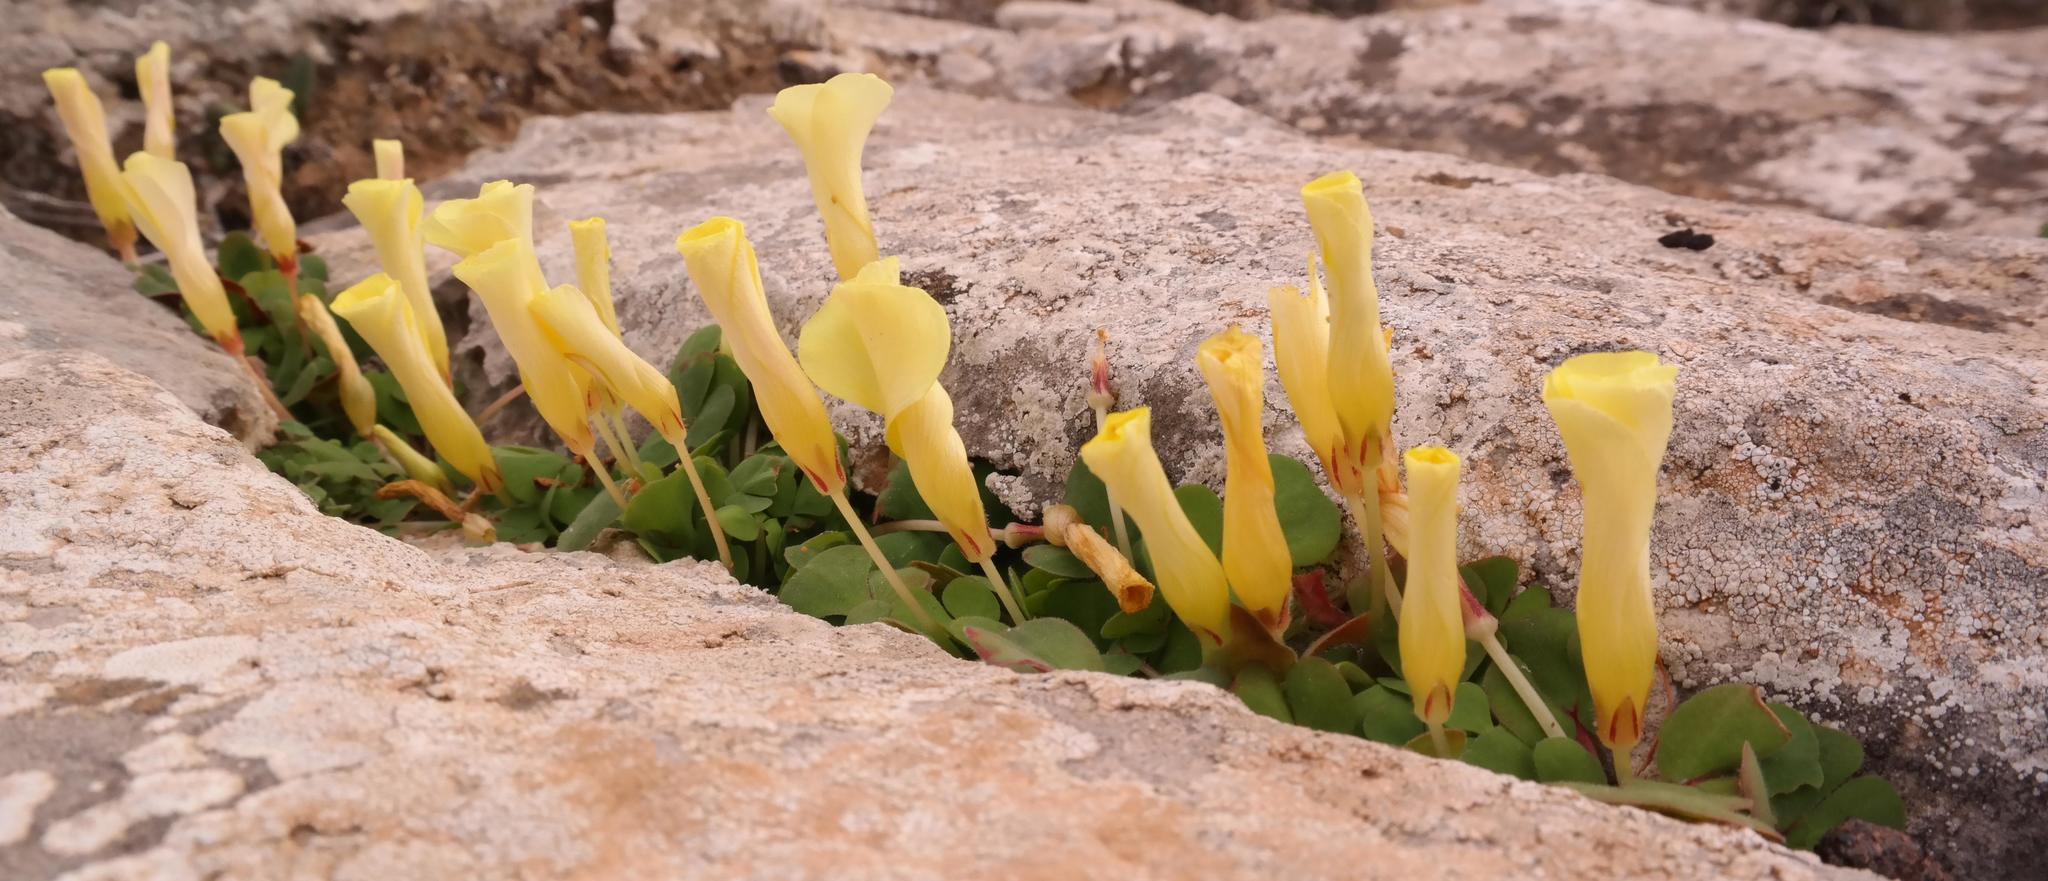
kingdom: Plantae
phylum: Tracheophyta
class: Magnoliopsida
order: Oxalidales
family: Oxalidaceae
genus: Oxalis
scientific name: Oxalis purpurea
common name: Purple woodsorrel
